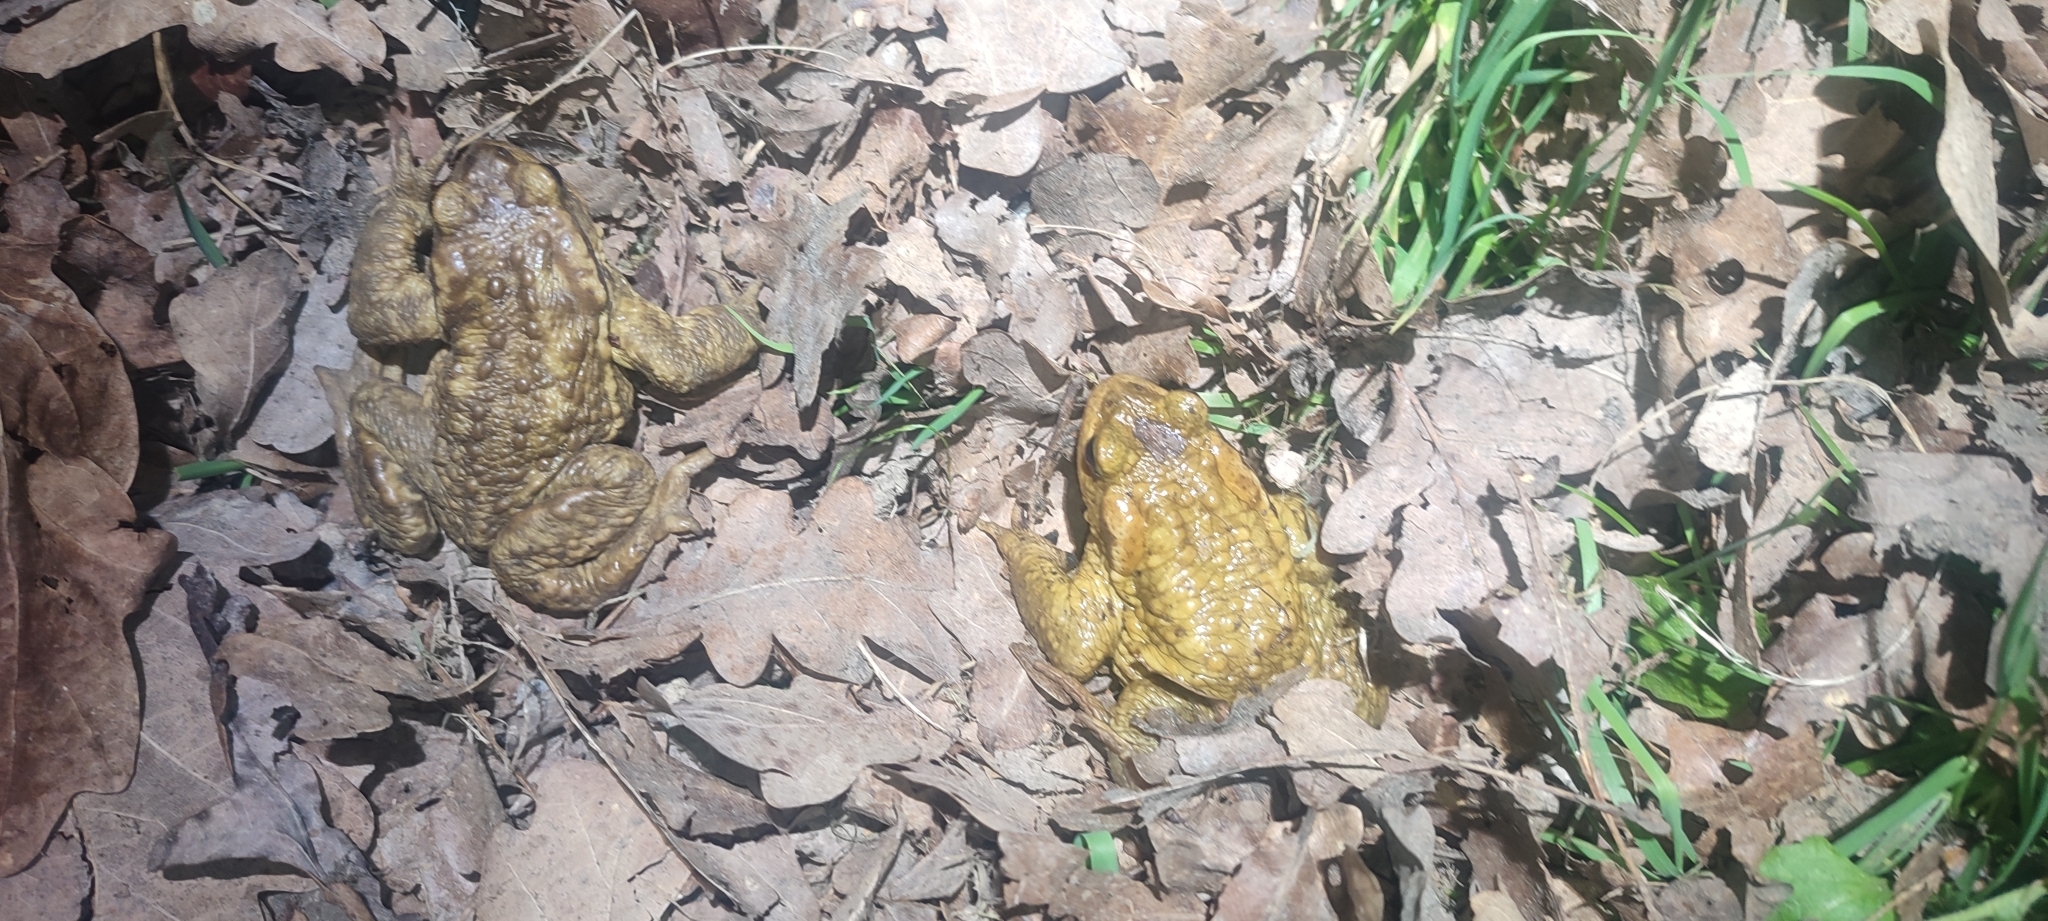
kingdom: Animalia
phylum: Chordata
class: Amphibia
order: Anura
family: Bufonidae
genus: Bufo
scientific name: Bufo spinosus
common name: Western common toad
